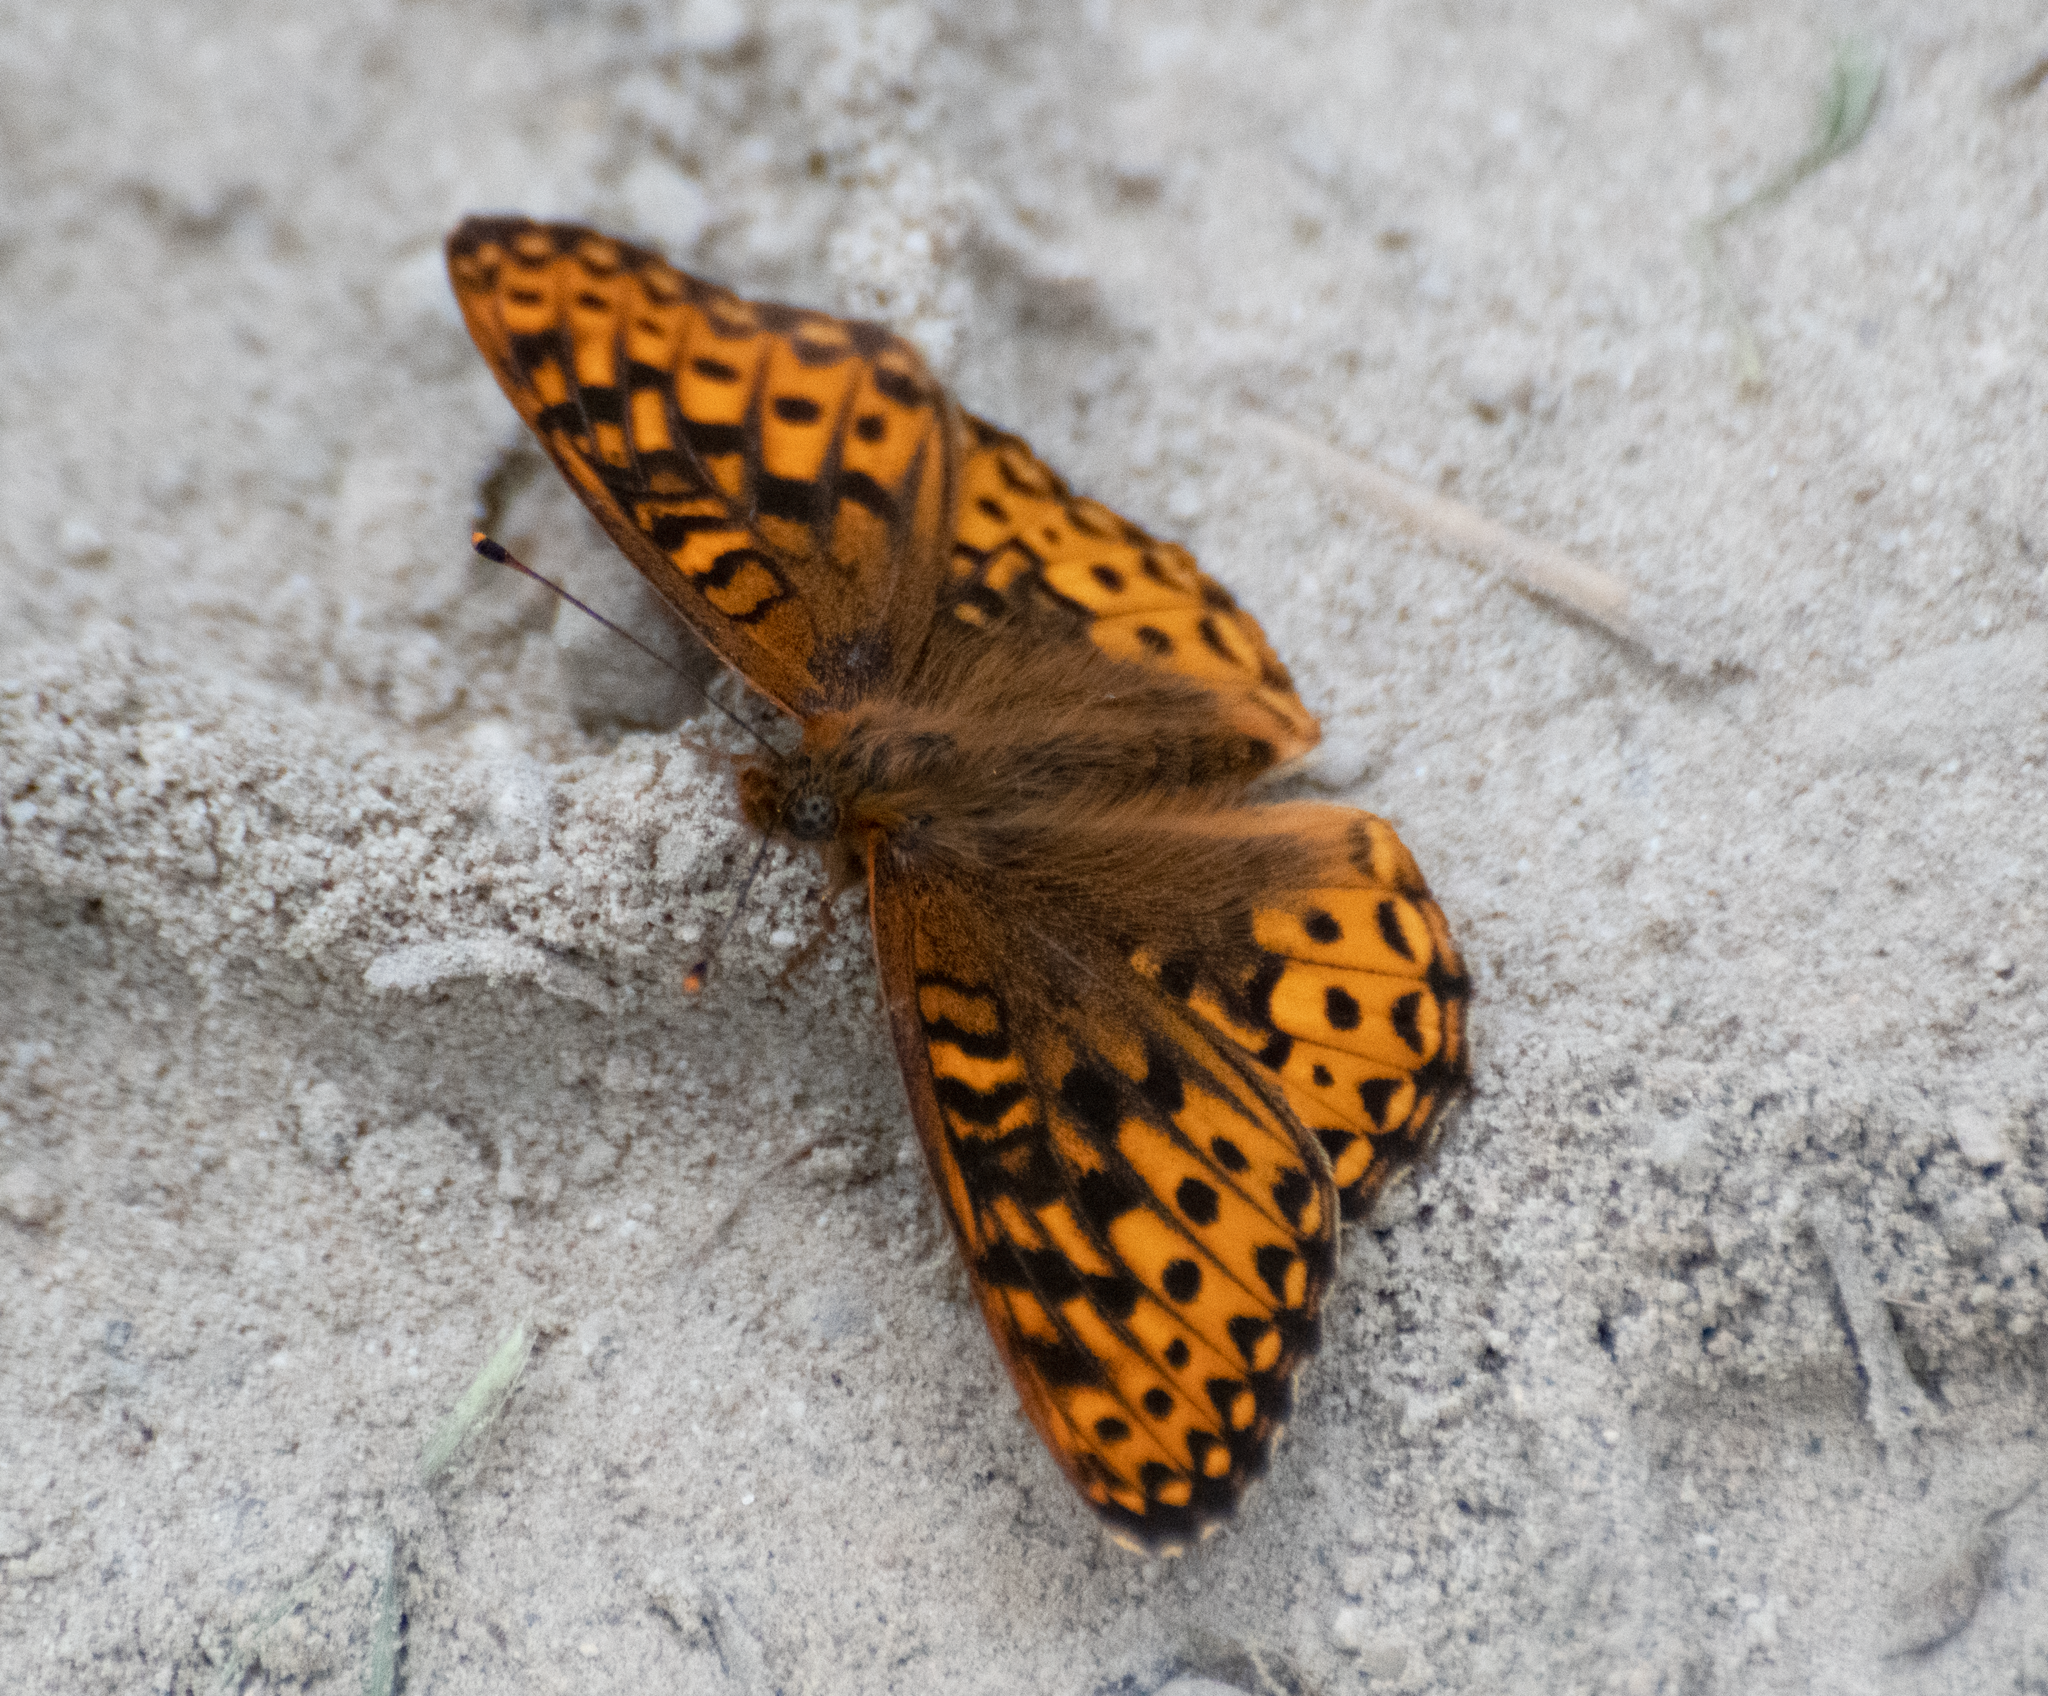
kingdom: Animalia
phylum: Arthropoda
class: Insecta
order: Lepidoptera
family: Nymphalidae
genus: Speyeria
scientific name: Speyeria hydaspe
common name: Hydaspe fritillary
